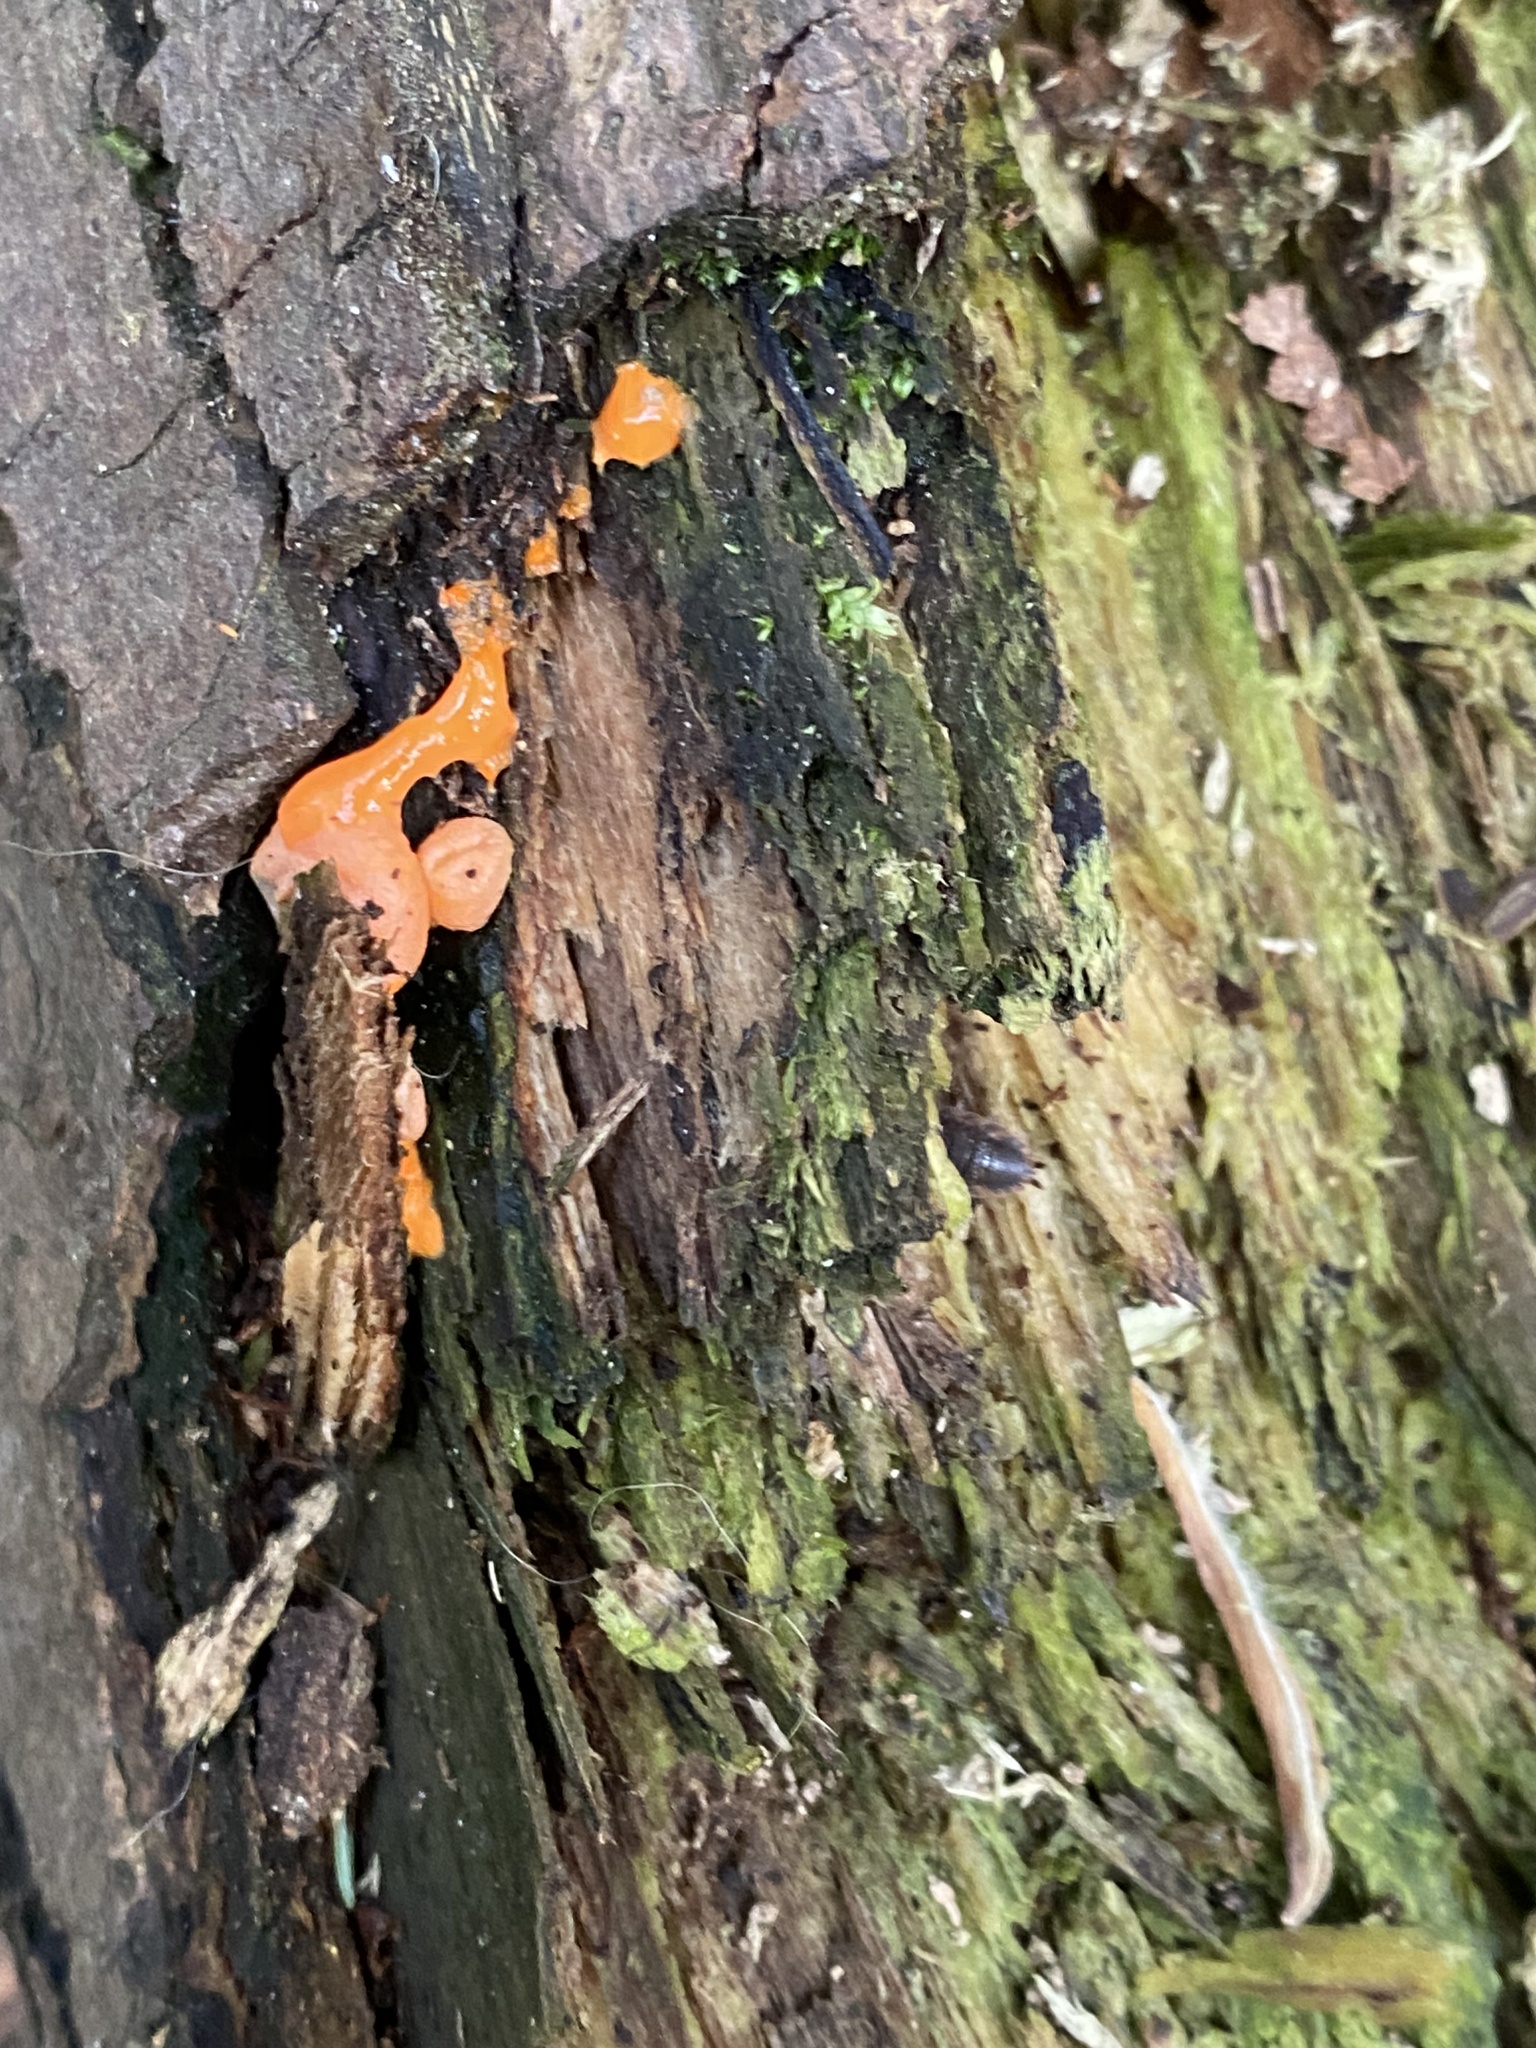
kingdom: Protozoa
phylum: Mycetozoa
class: Myxomycetes
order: Cribrariales
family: Tubiferaceae
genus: Lycogala
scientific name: Lycogala epidendrum
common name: Wolf's milk
